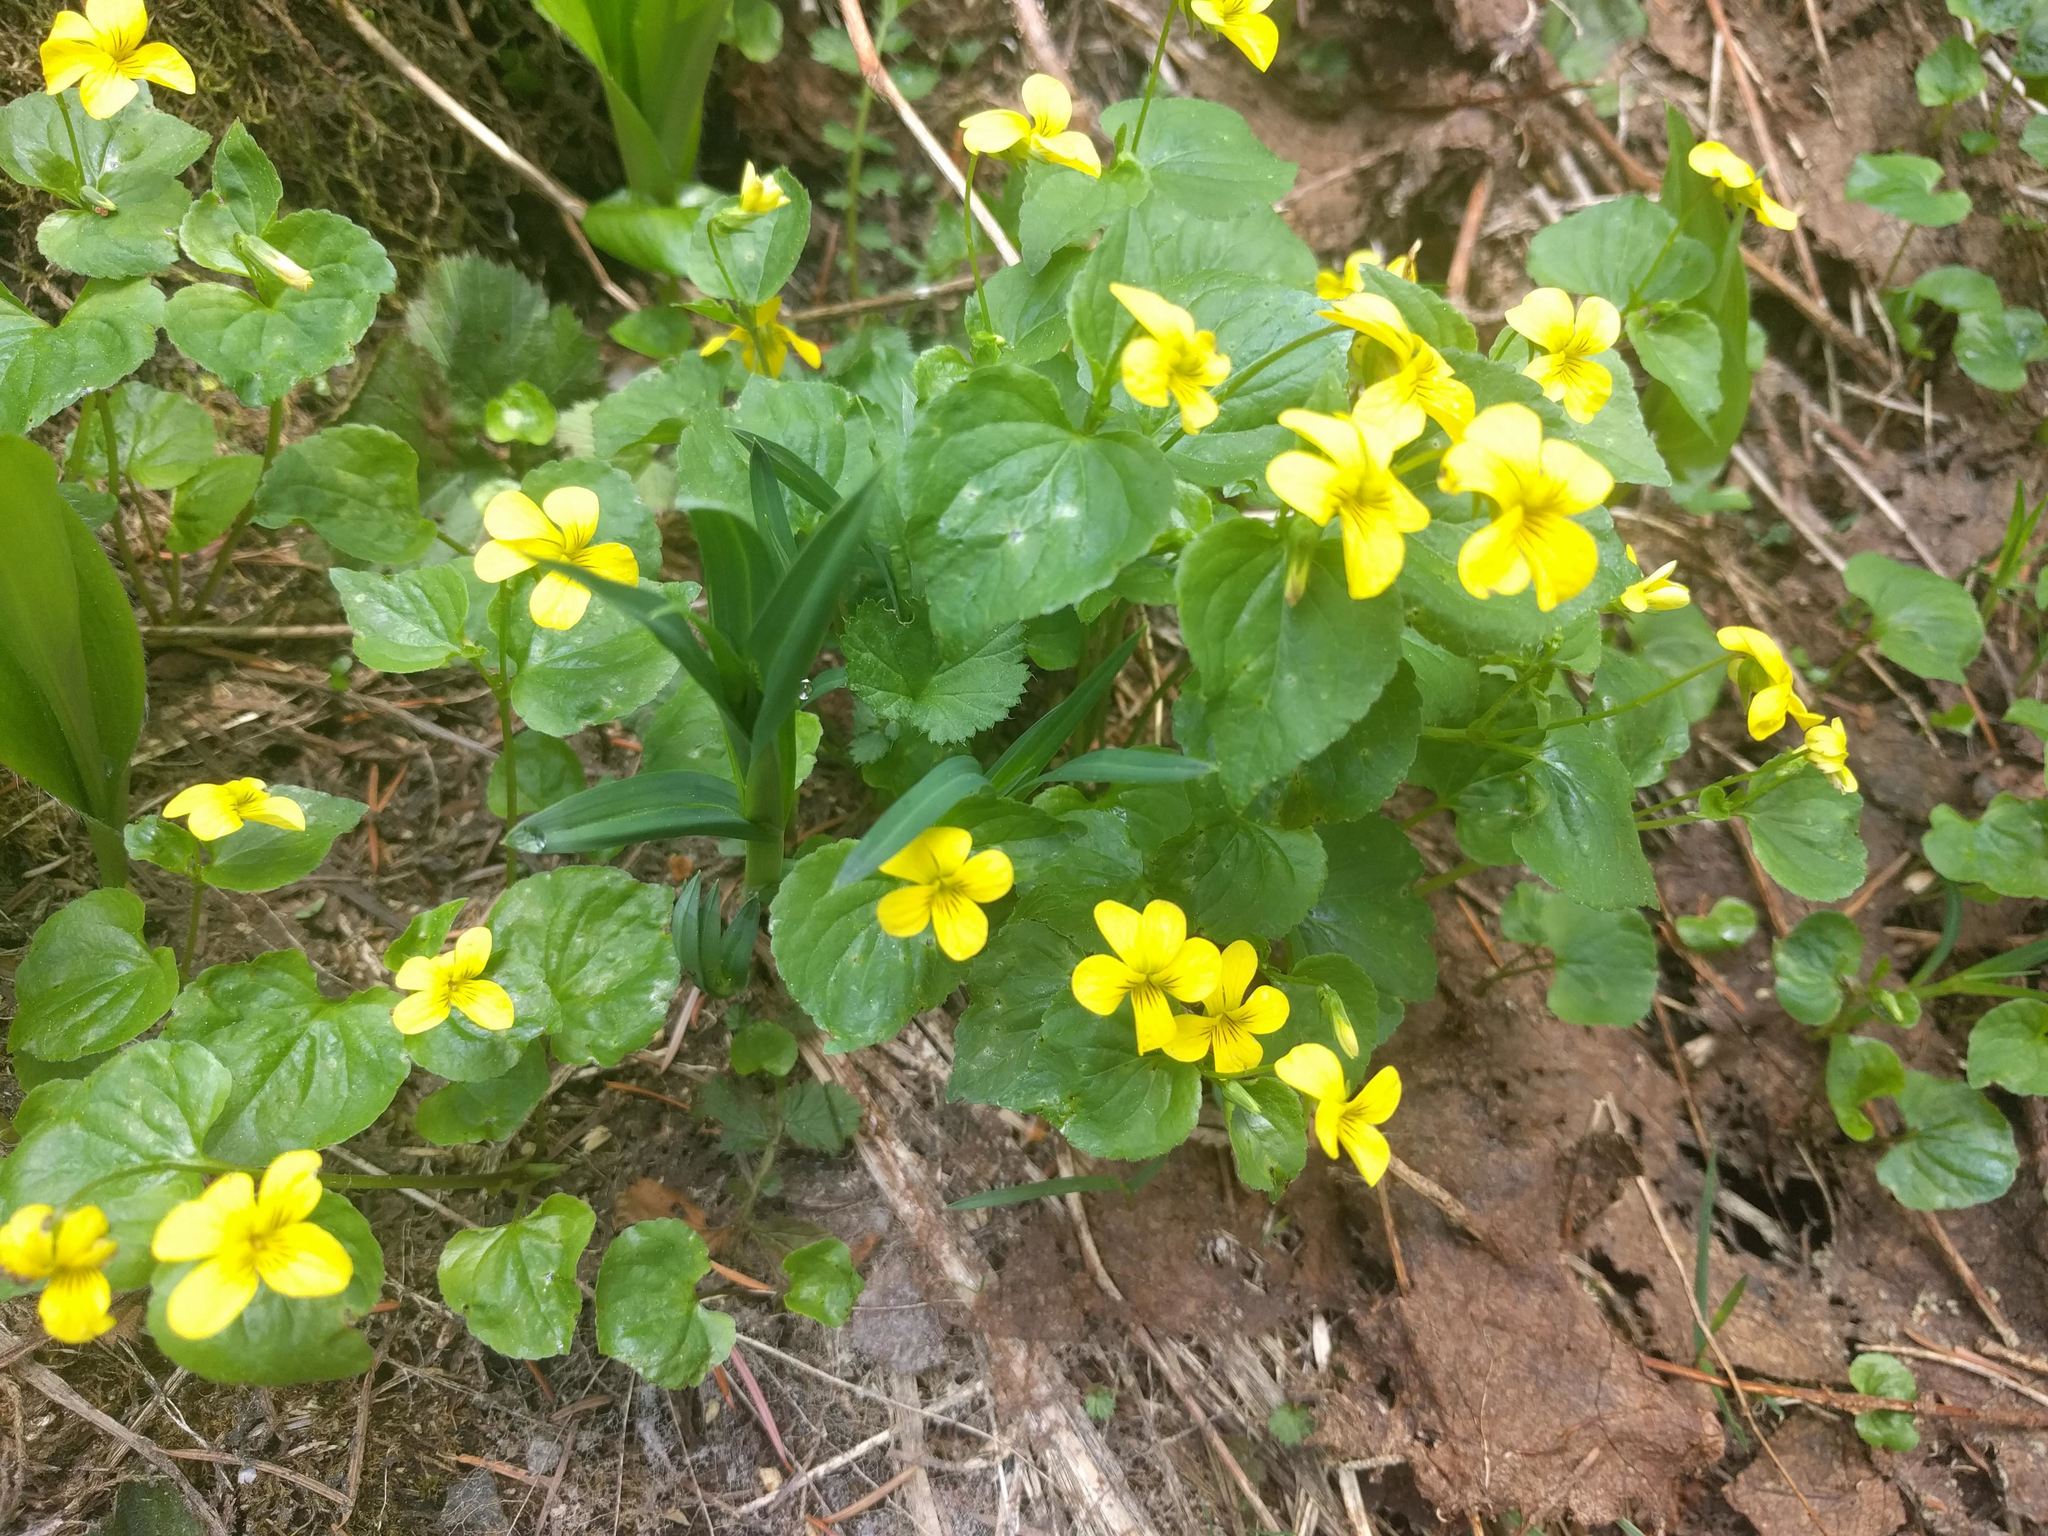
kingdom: Plantae
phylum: Tracheophyta
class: Magnoliopsida
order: Malpighiales
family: Violaceae
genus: Viola
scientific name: Viola glabella
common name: Stream violet
